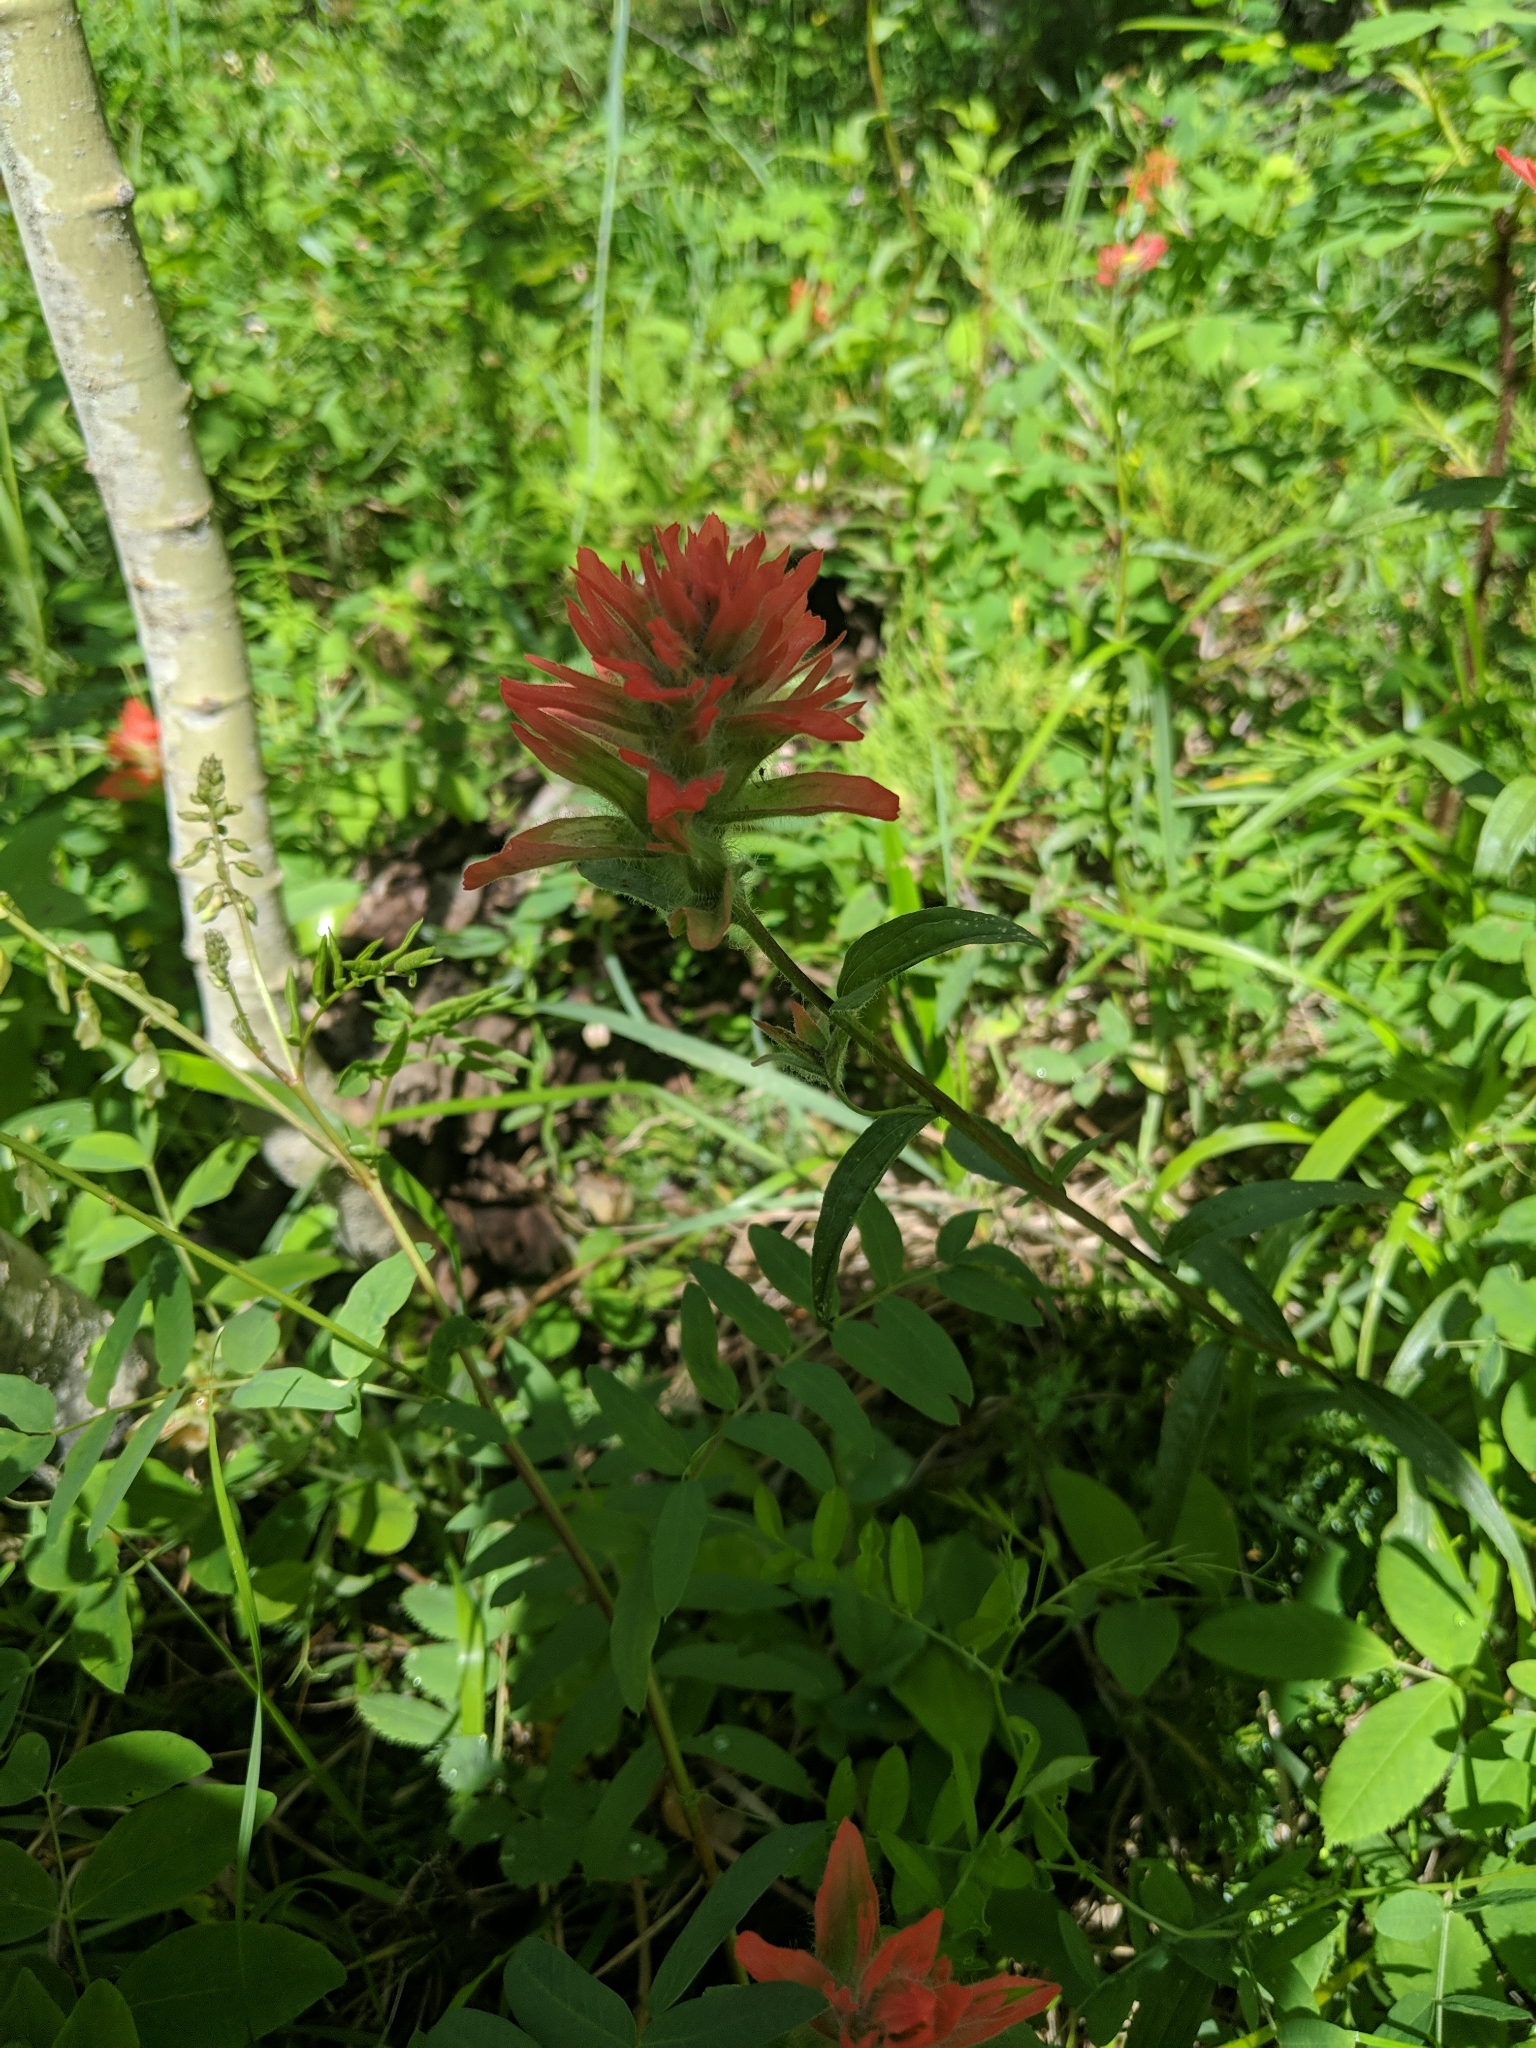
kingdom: Plantae
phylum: Tracheophyta
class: Magnoliopsida
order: Lamiales
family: Orobanchaceae
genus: Castilleja
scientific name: Castilleja miniata
